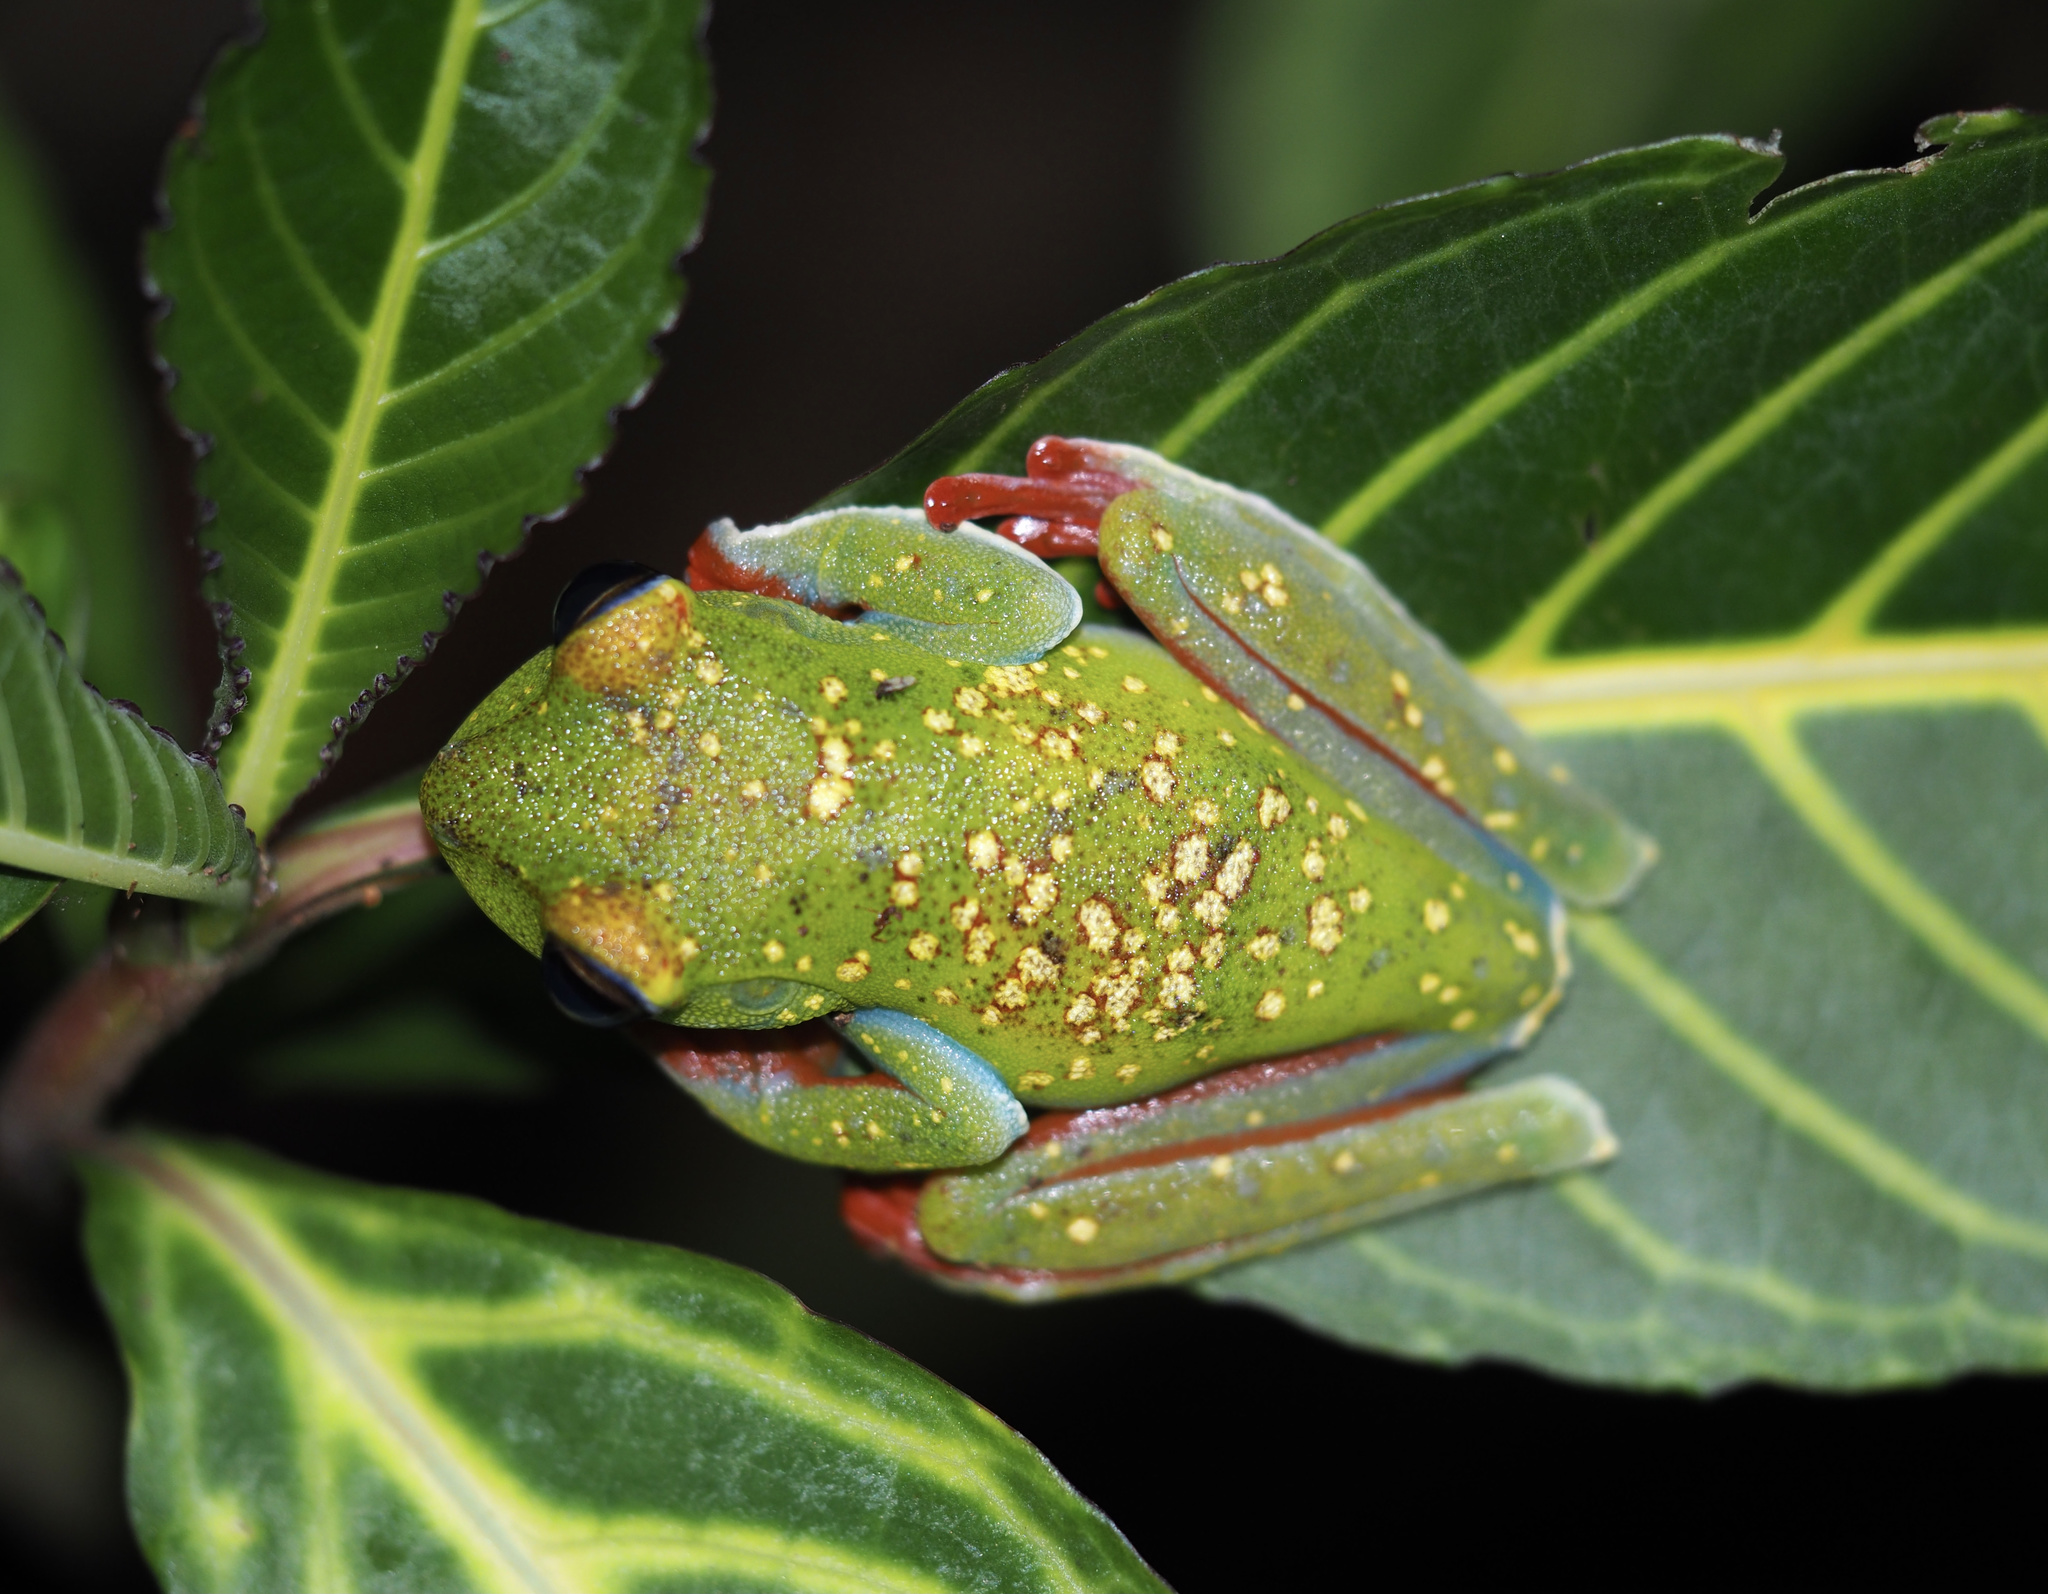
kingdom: Animalia
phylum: Chordata
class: Amphibia
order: Anura
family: Hylidae
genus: Boana
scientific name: Boana rufitela
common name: Canal zone treefrog
